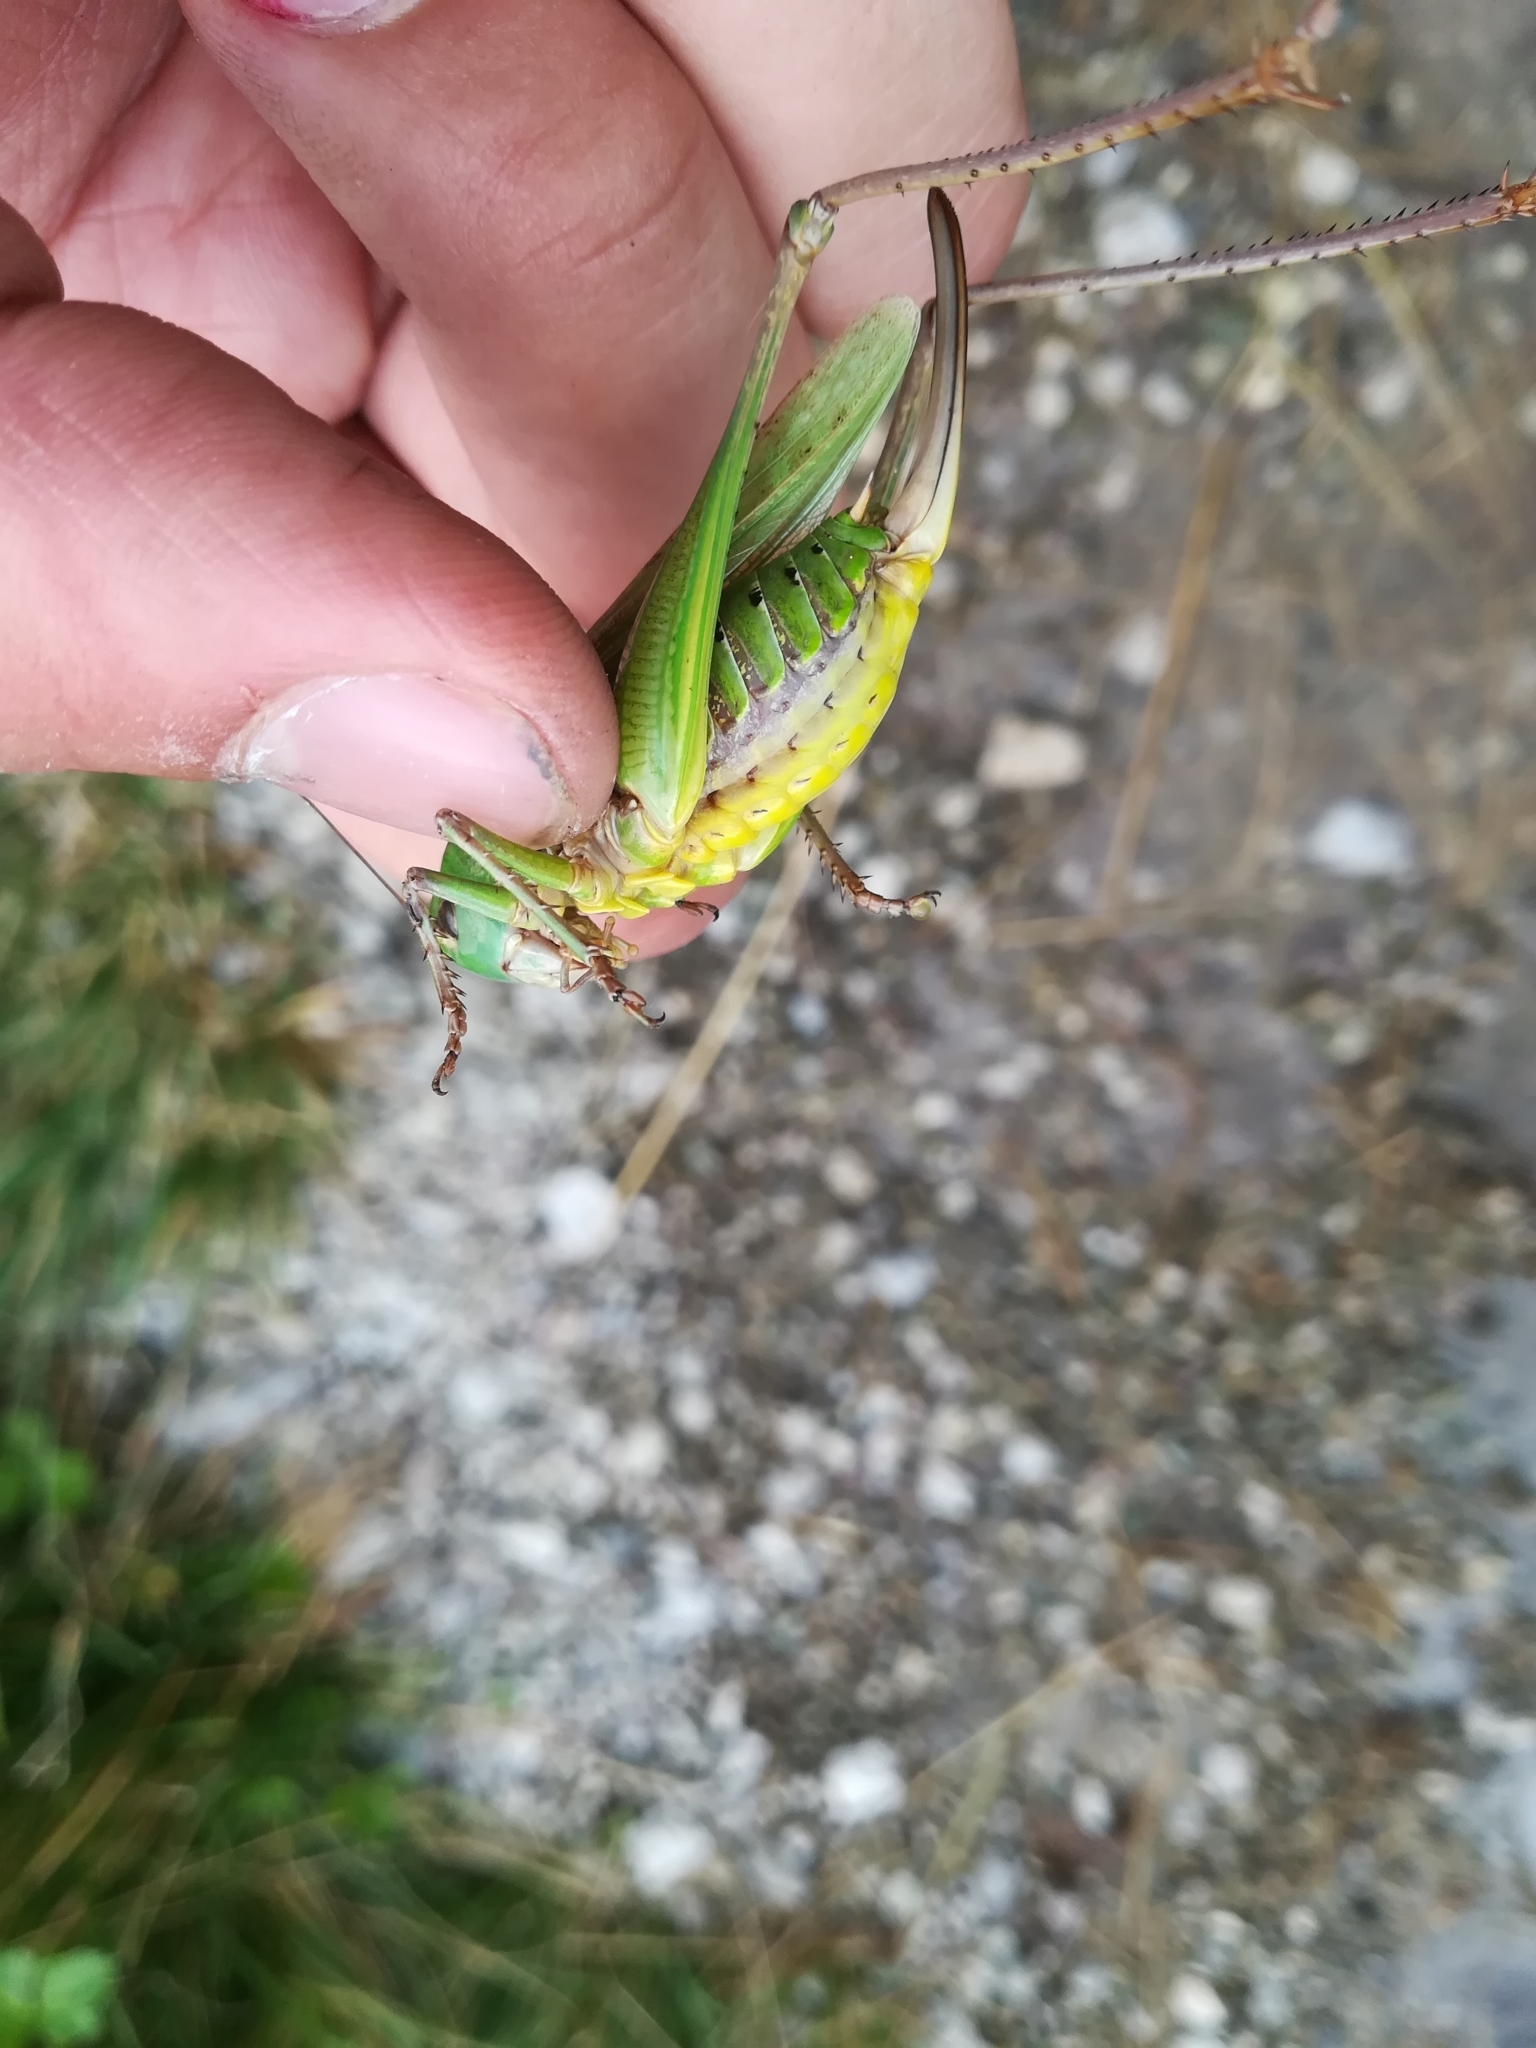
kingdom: Animalia
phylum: Arthropoda
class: Insecta
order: Orthoptera
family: Tettigoniidae
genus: Decticus
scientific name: Decticus verrucivorus
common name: Wart-biter
